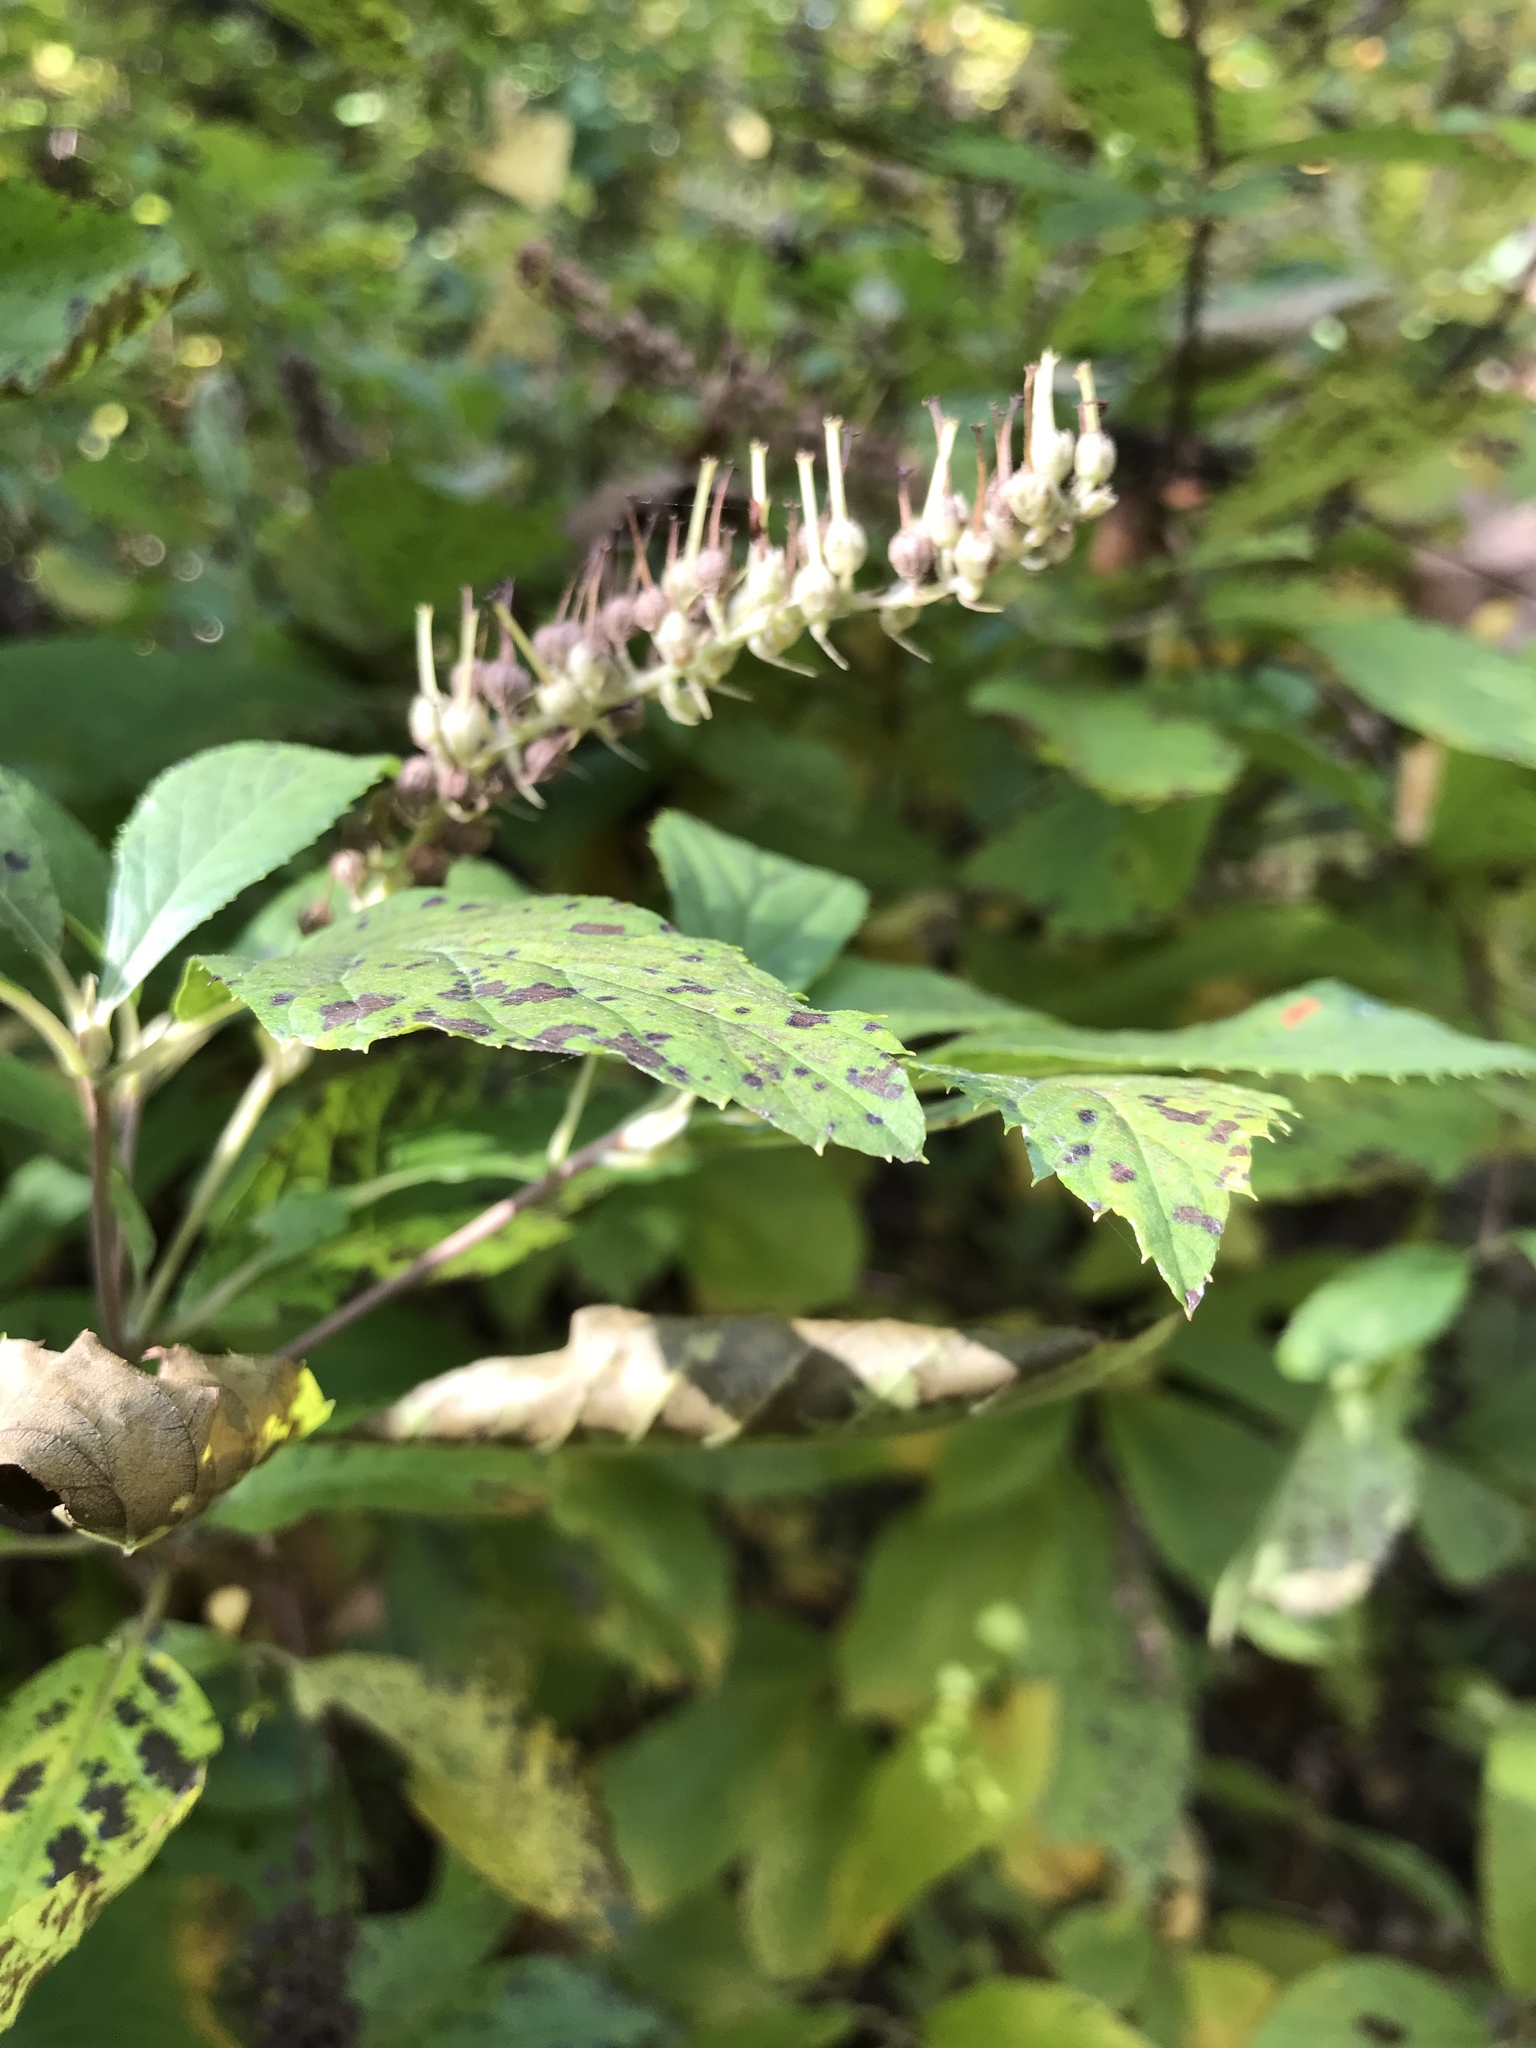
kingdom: Plantae
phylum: Tracheophyta
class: Magnoliopsida
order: Ericales
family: Clethraceae
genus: Clethra
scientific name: Clethra alnifolia
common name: Sweet pepperbush
